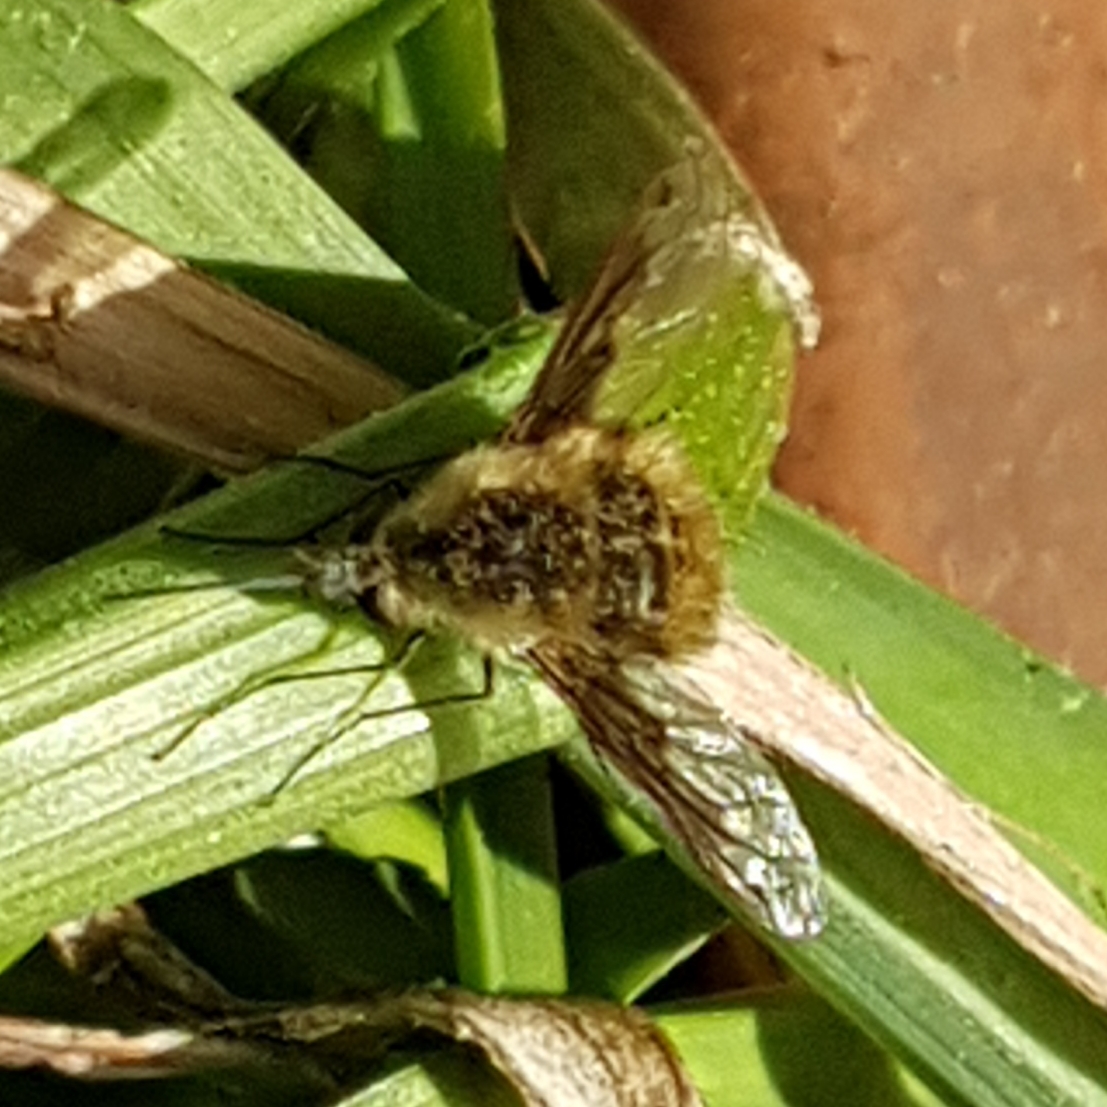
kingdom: Animalia
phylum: Arthropoda
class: Insecta
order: Diptera
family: Bombyliidae
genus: Bombylius
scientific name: Bombylius major
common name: Bee fly
